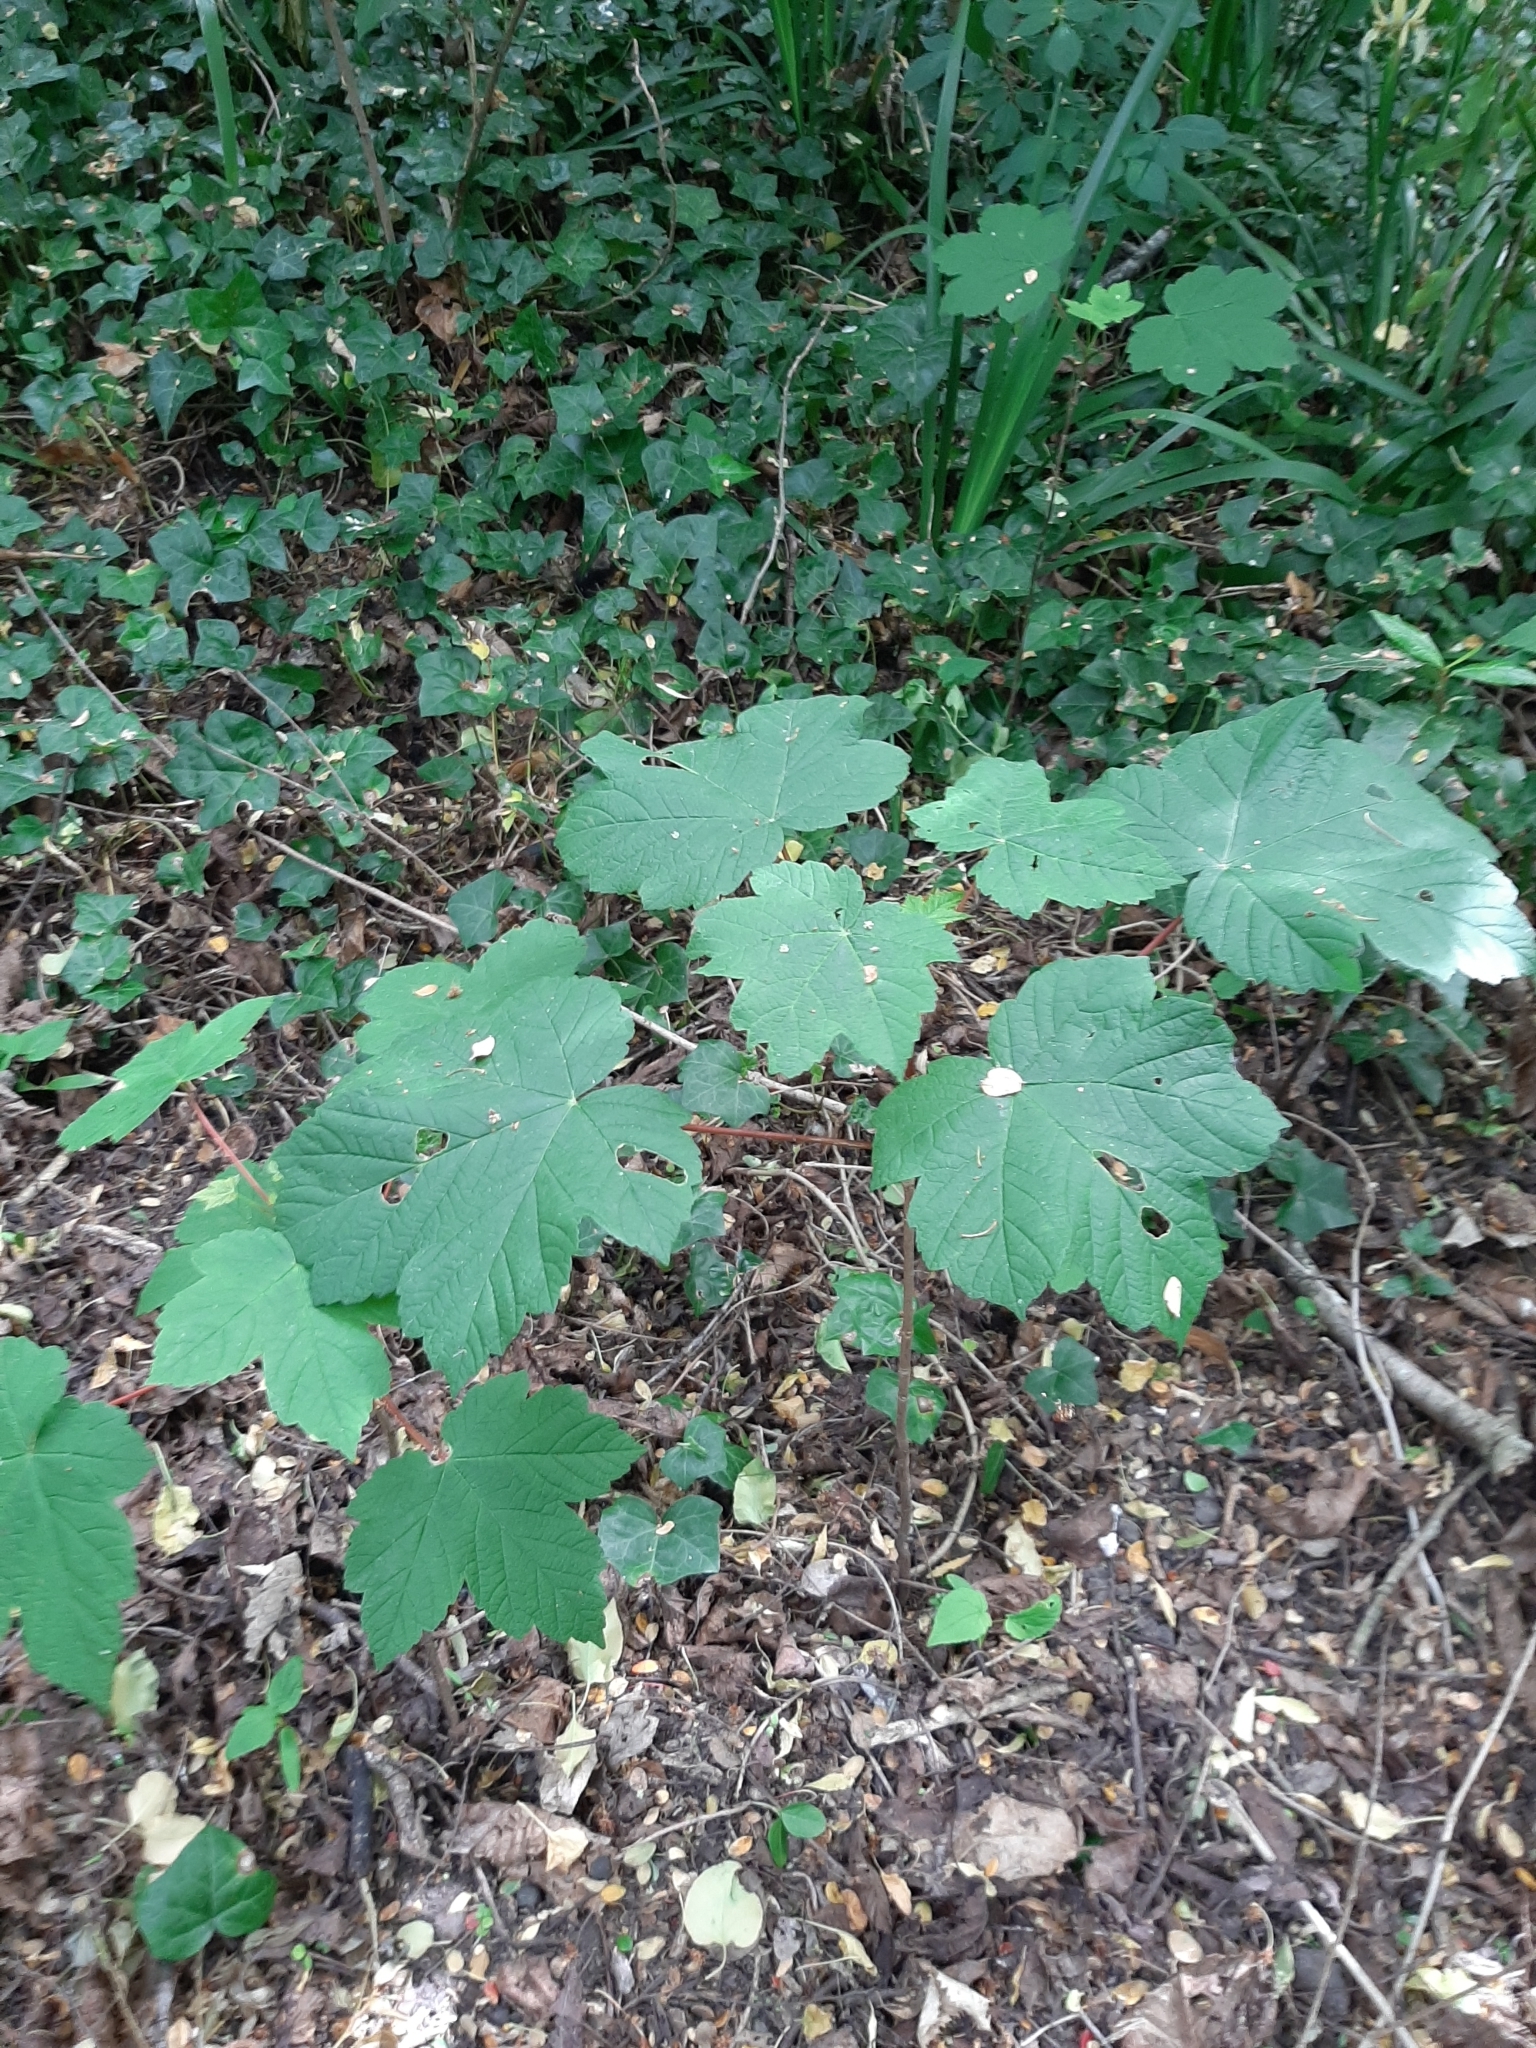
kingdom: Plantae
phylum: Tracheophyta
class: Magnoliopsida
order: Sapindales
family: Sapindaceae
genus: Acer
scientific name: Acer pseudoplatanus
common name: Sycamore
